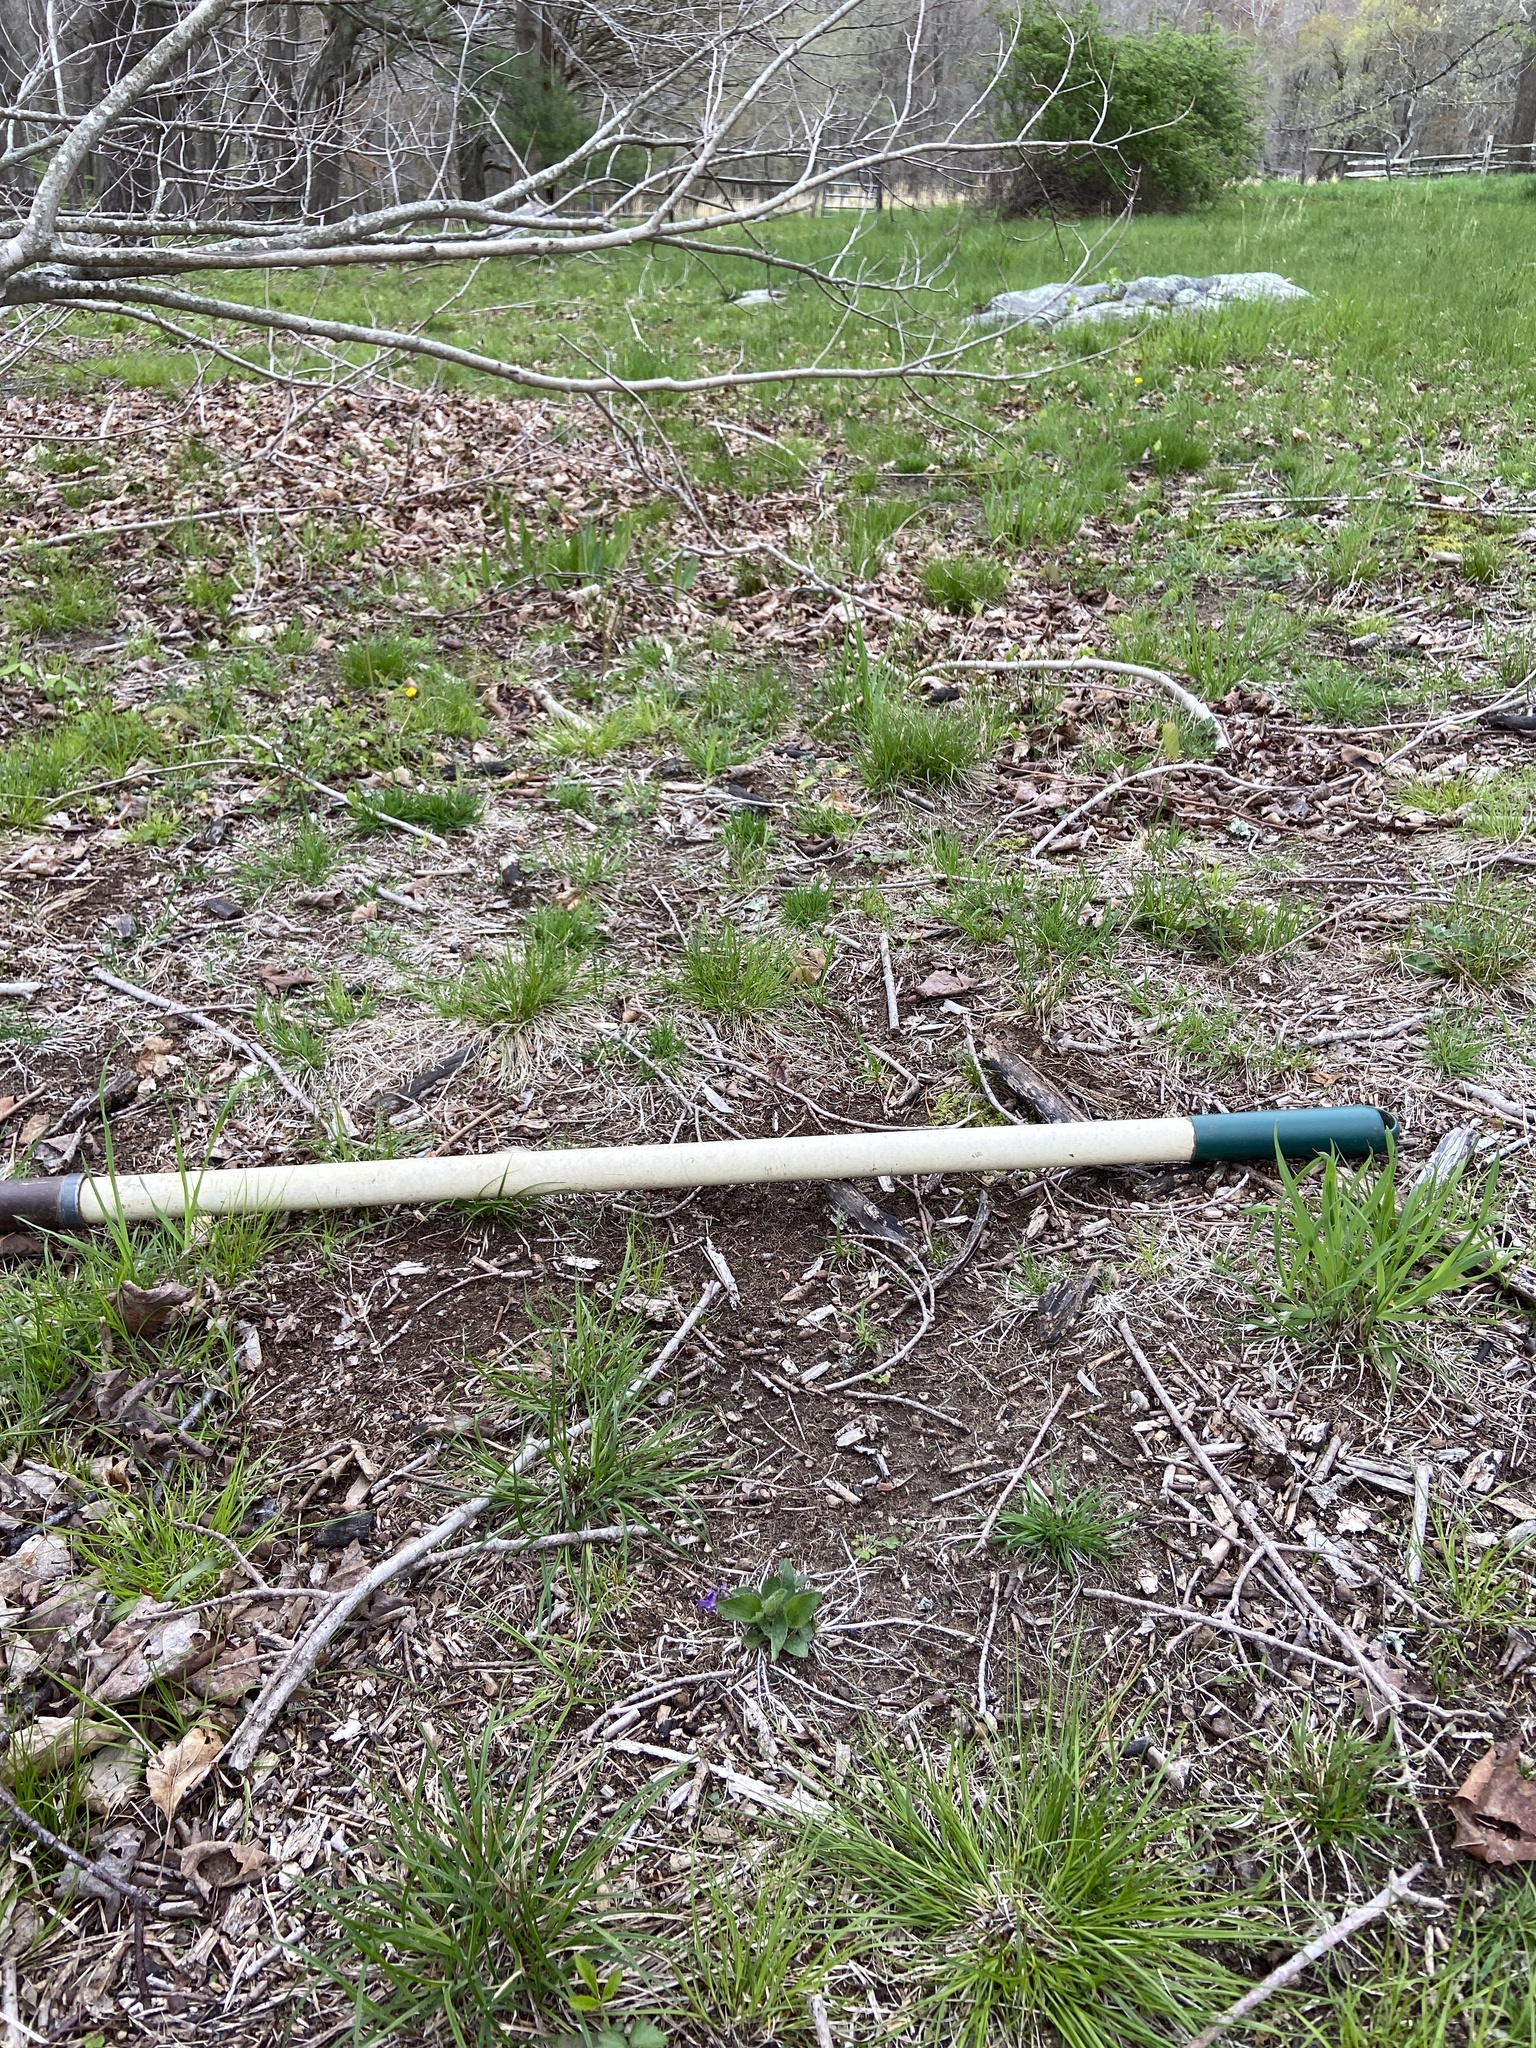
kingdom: Plantae
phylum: Tracheophyta
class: Magnoliopsida
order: Malpighiales
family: Violaceae
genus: Viola
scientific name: Viola fimbriatula
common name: Sand violet
